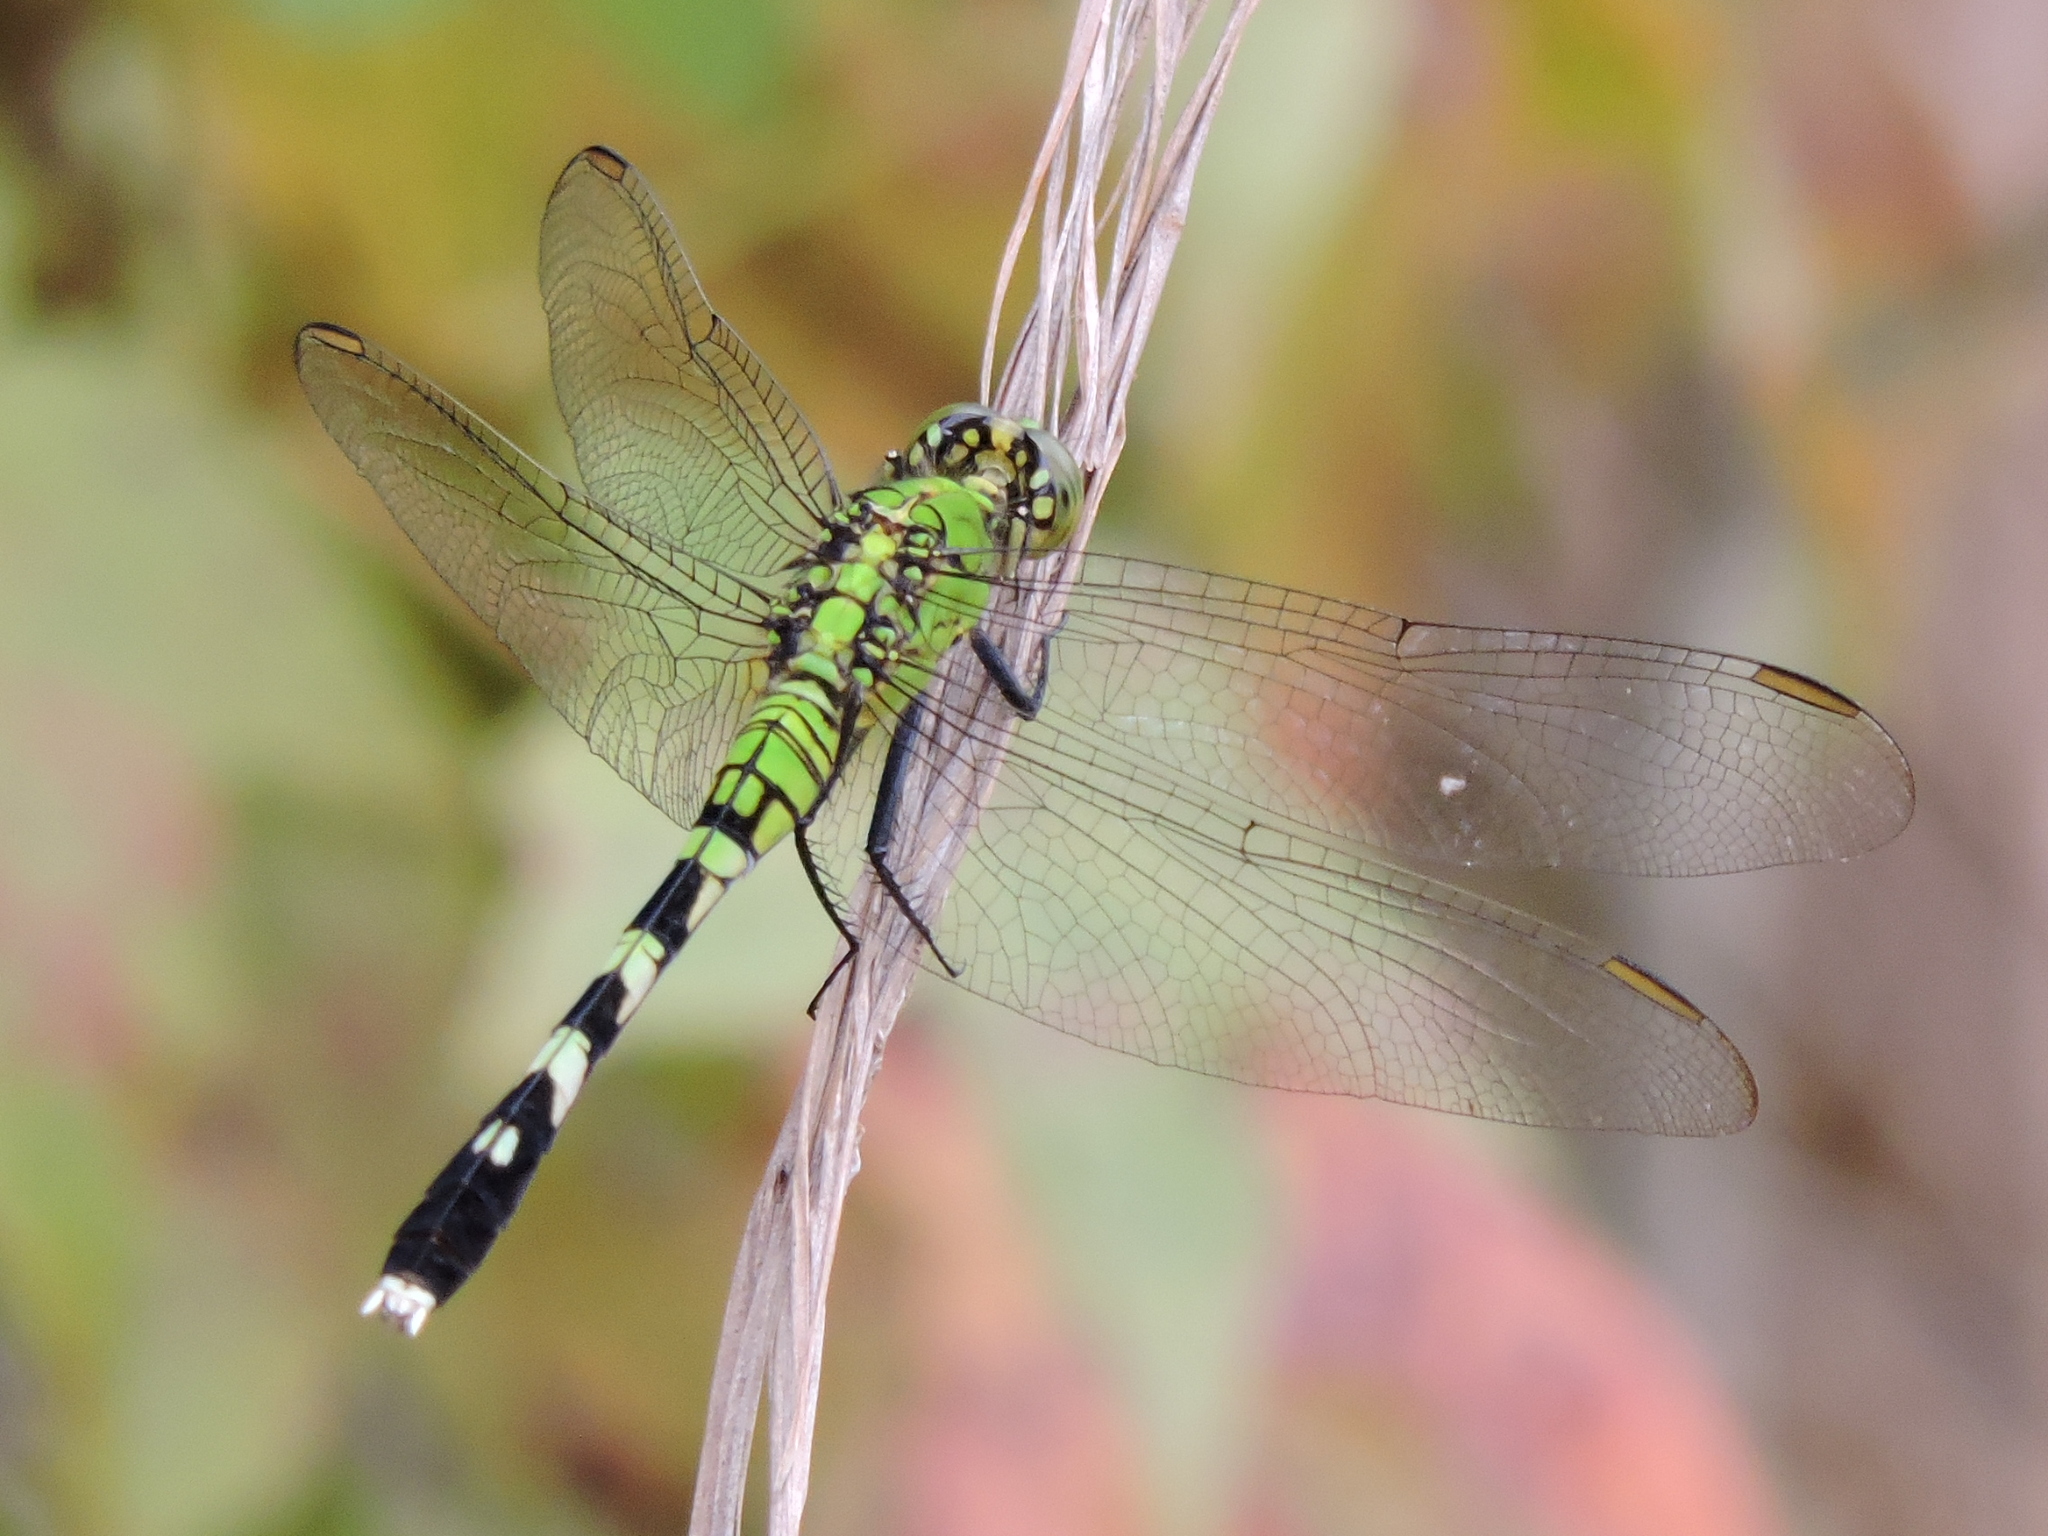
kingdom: Animalia
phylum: Arthropoda
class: Insecta
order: Odonata
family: Libellulidae
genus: Erythemis
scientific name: Erythemis simplicicollis
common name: Eastern pondhawk
